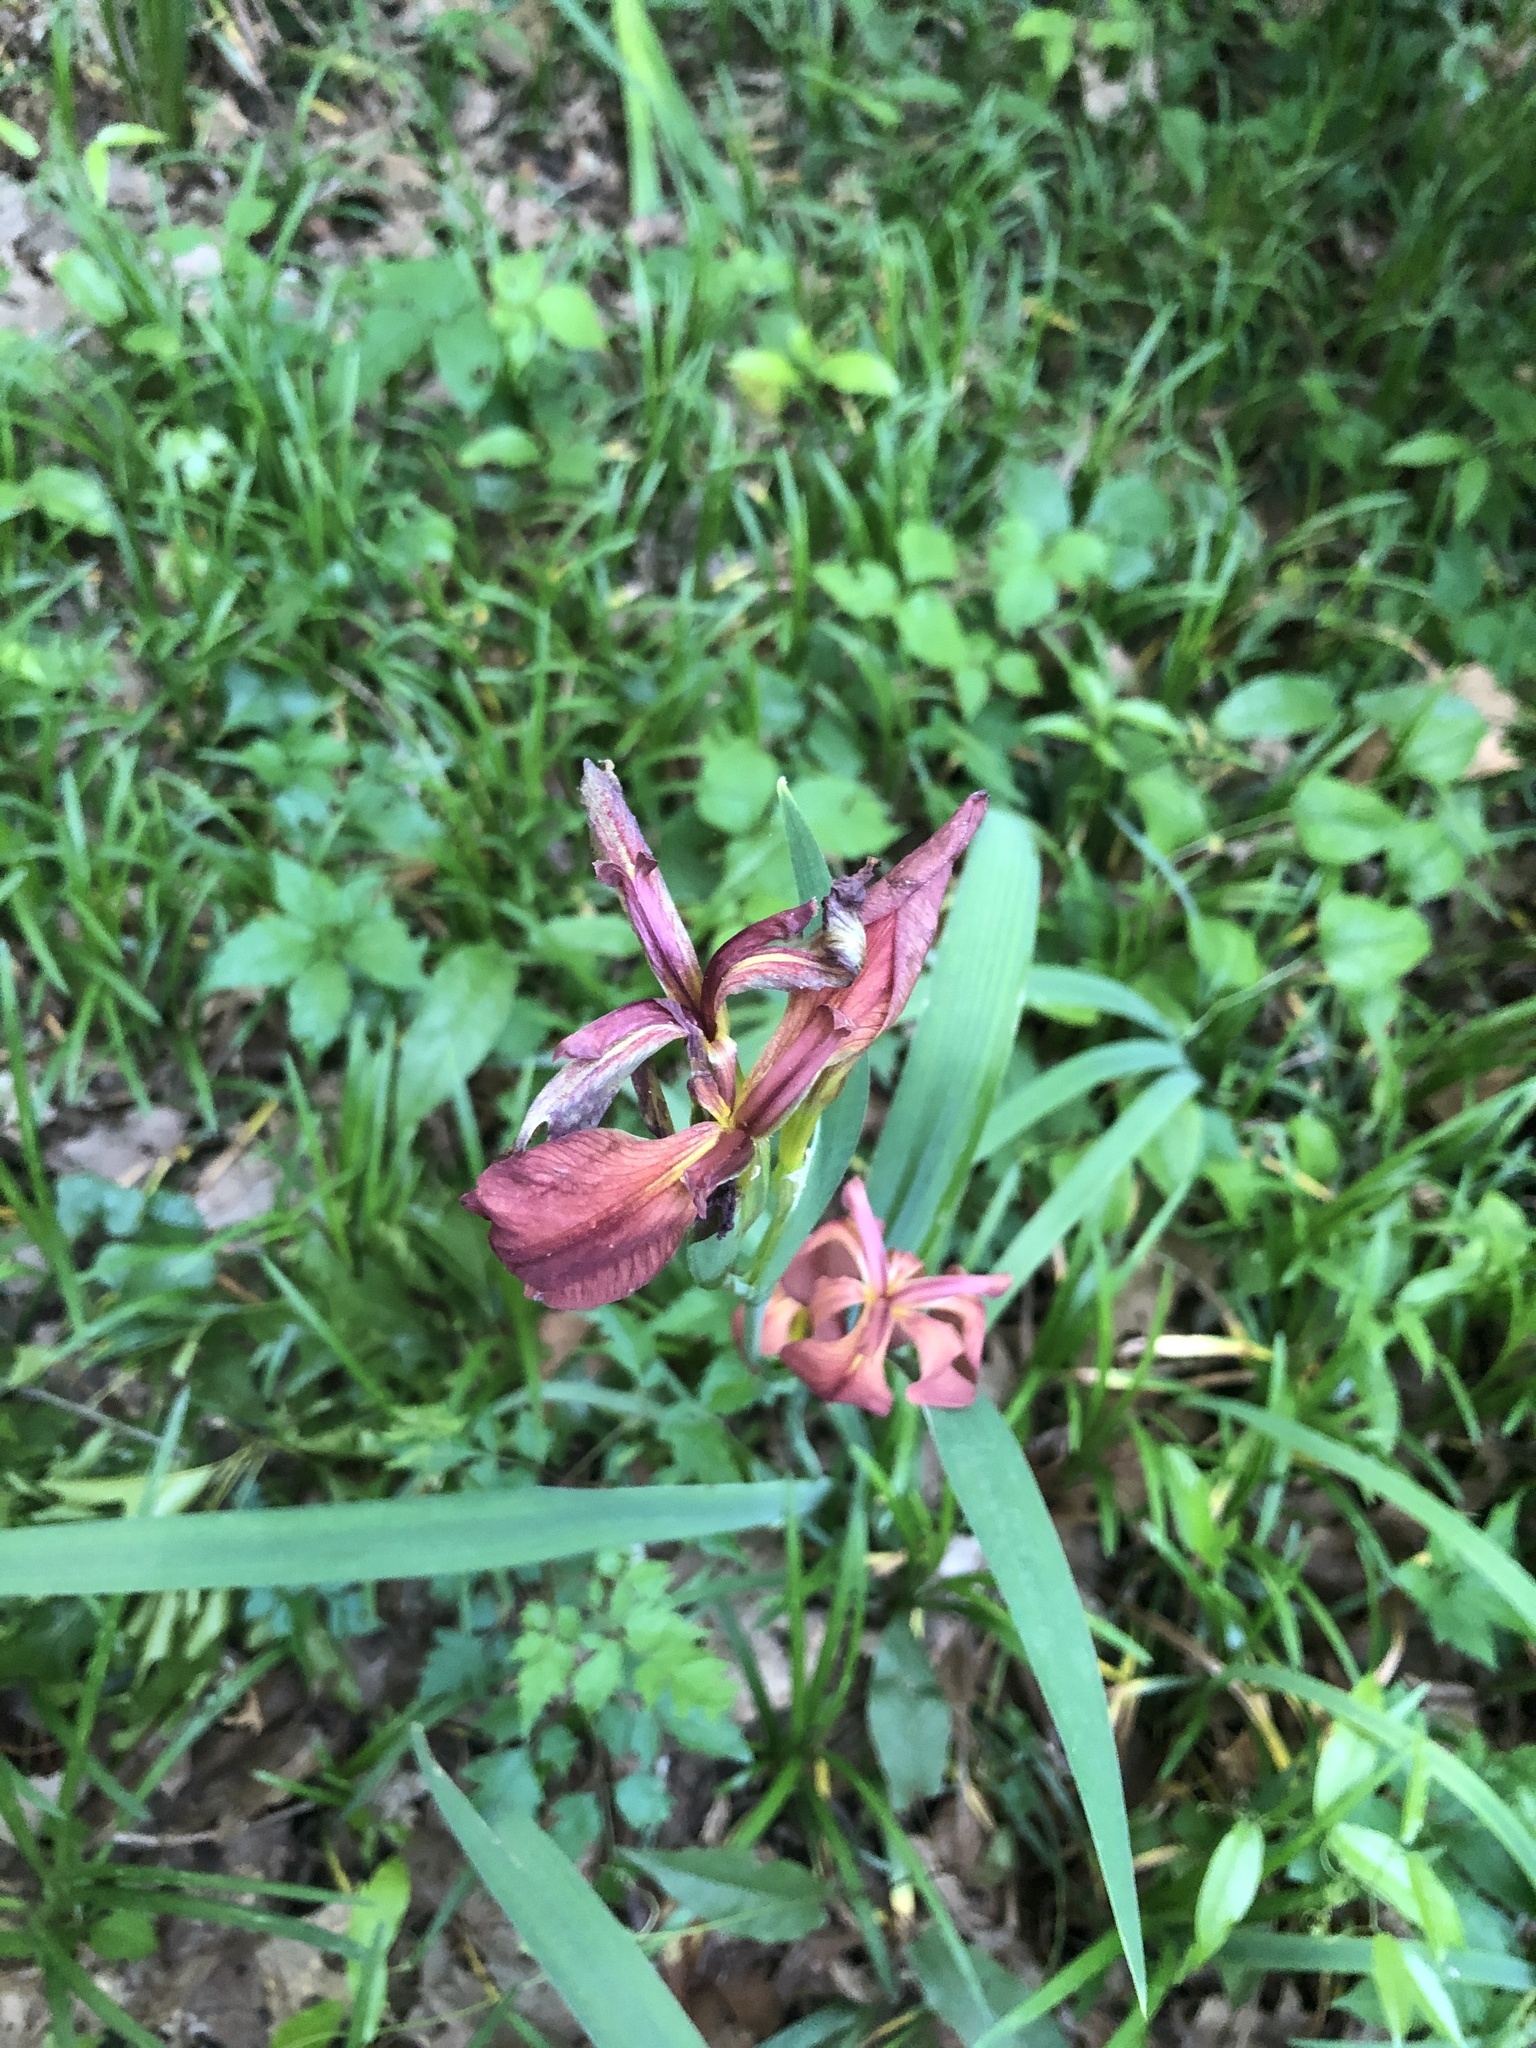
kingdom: Plantae
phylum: Tracheophyta
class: Liliopsida
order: Asparagales
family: Iridaceae
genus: Iris
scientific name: Iris fulva
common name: Copper iris
